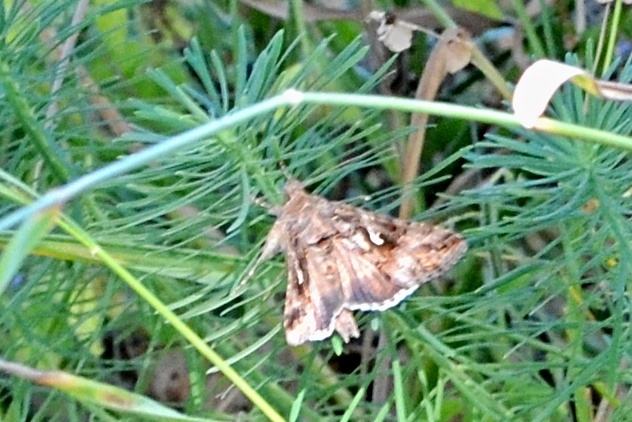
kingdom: Animalia
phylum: Arthropoda
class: Insecta
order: Lepidoptera
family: Noctuidae
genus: Autographa
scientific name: Autographa gamma
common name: Silver y
